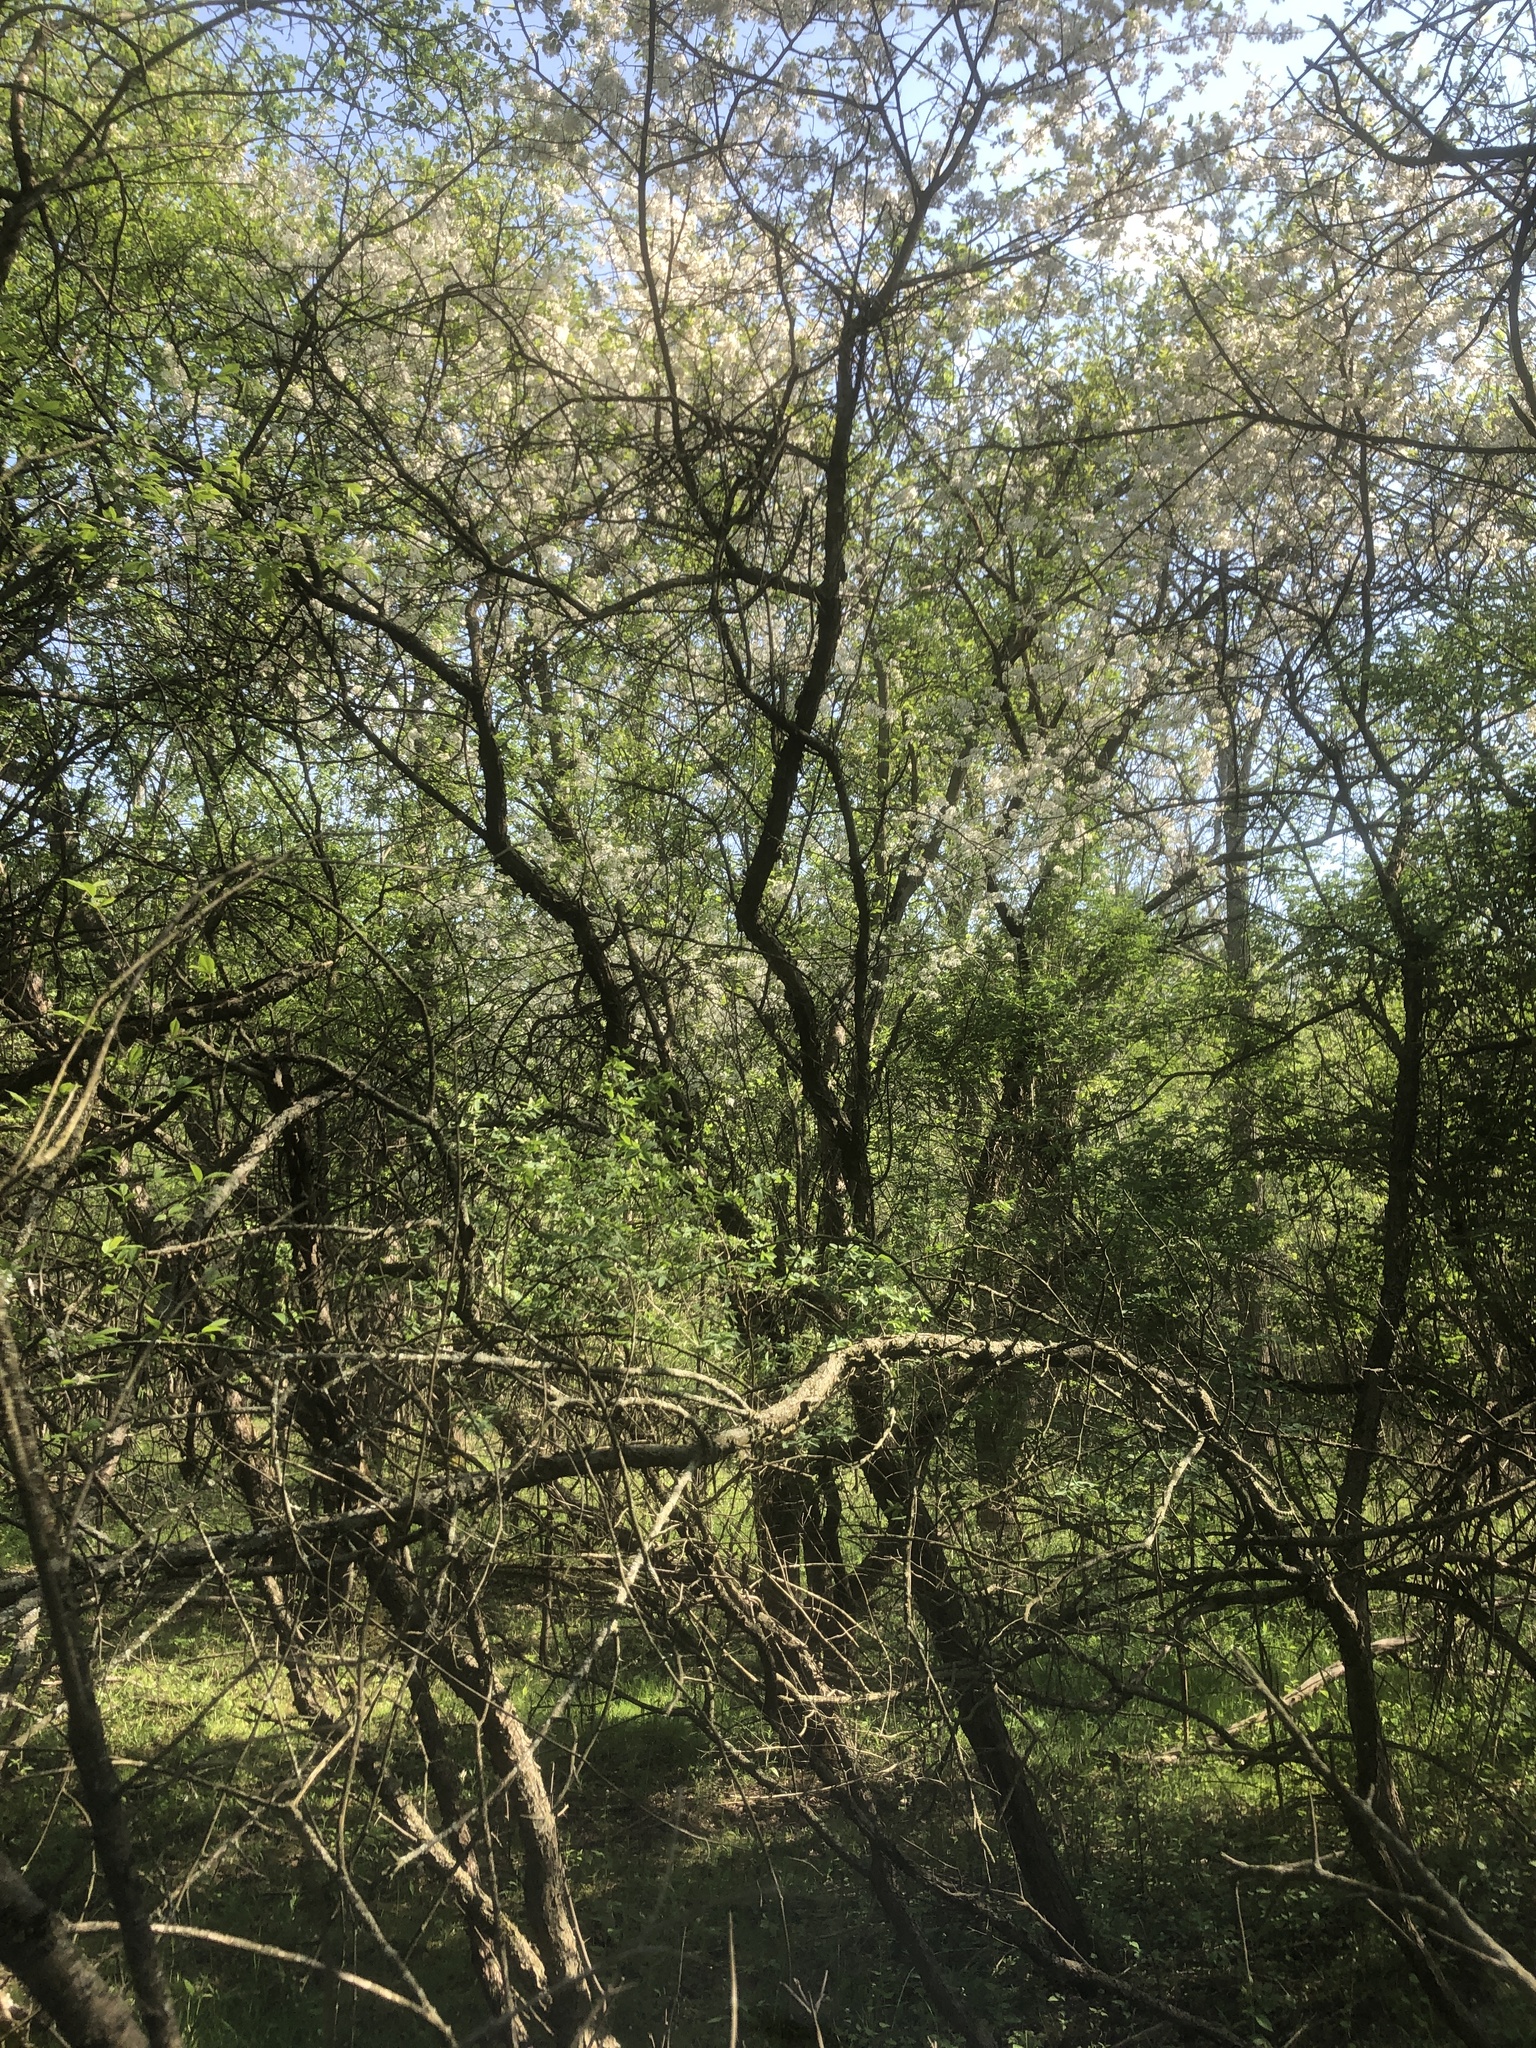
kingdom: Plantae
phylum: Tracheophyta
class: Magnoliopsida
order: Rosales
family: Rosaceae
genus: Prunus
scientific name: Prunus americana
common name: American plum
